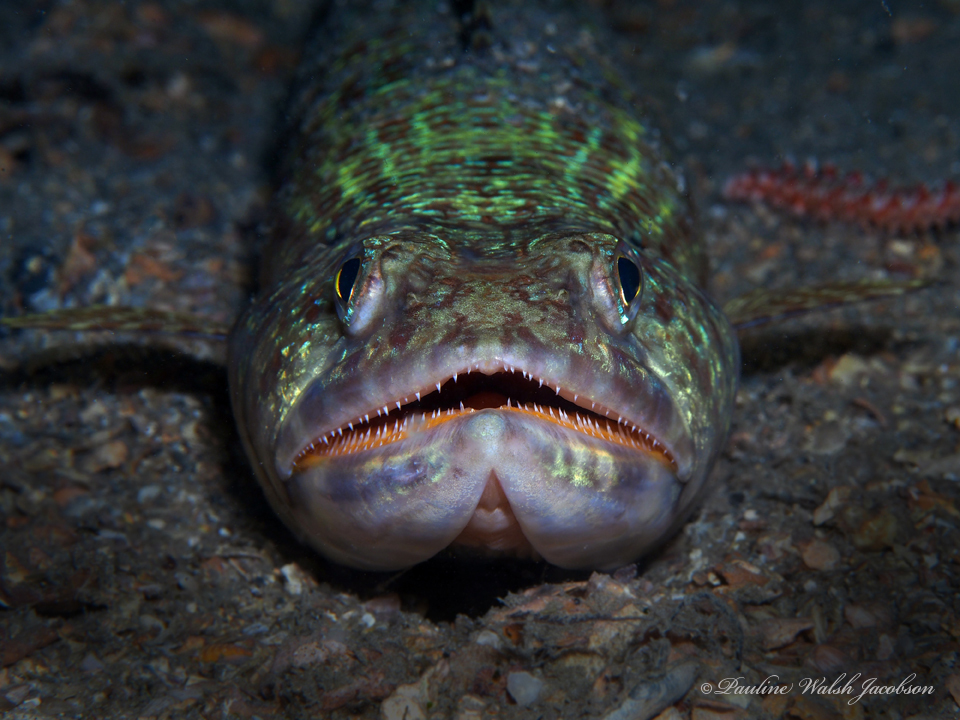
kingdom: Animalia
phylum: Chordata
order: Aulopiformes
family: Synodontidae
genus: Synodus
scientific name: Synodus intermedius
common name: Sand diver
